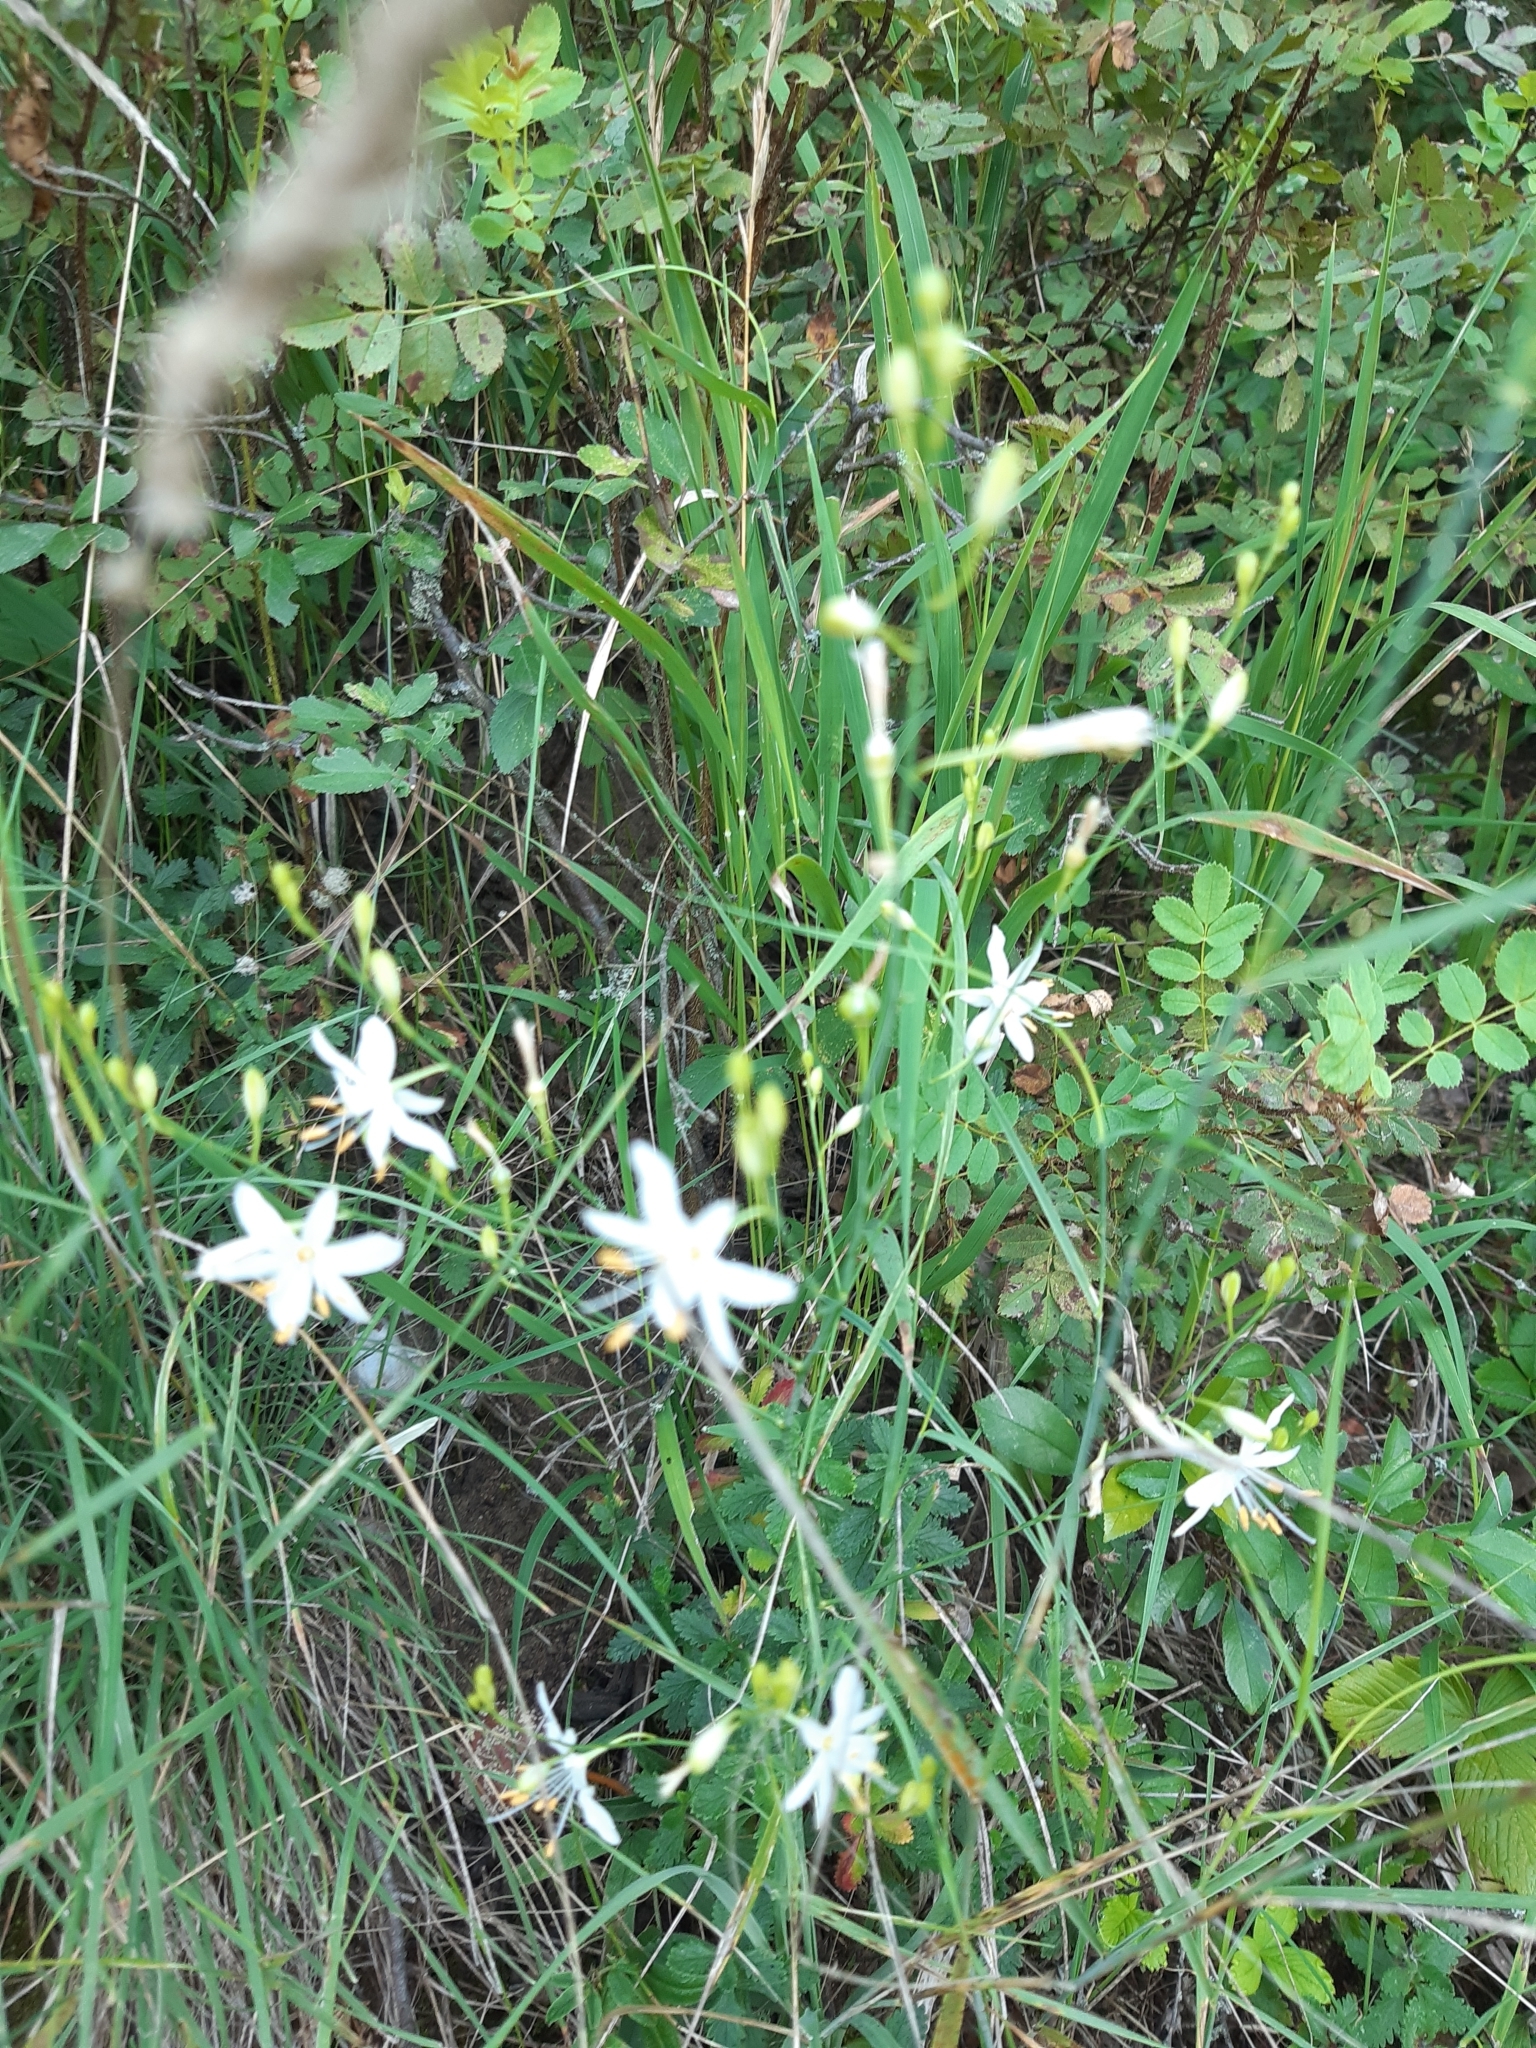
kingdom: Plantae
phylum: Tracheophyta
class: Liliopsida
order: Asparagales
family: Asparagaceae
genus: Anthericum
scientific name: Anthericum ramosum
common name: Branched st. bernard's-lily
